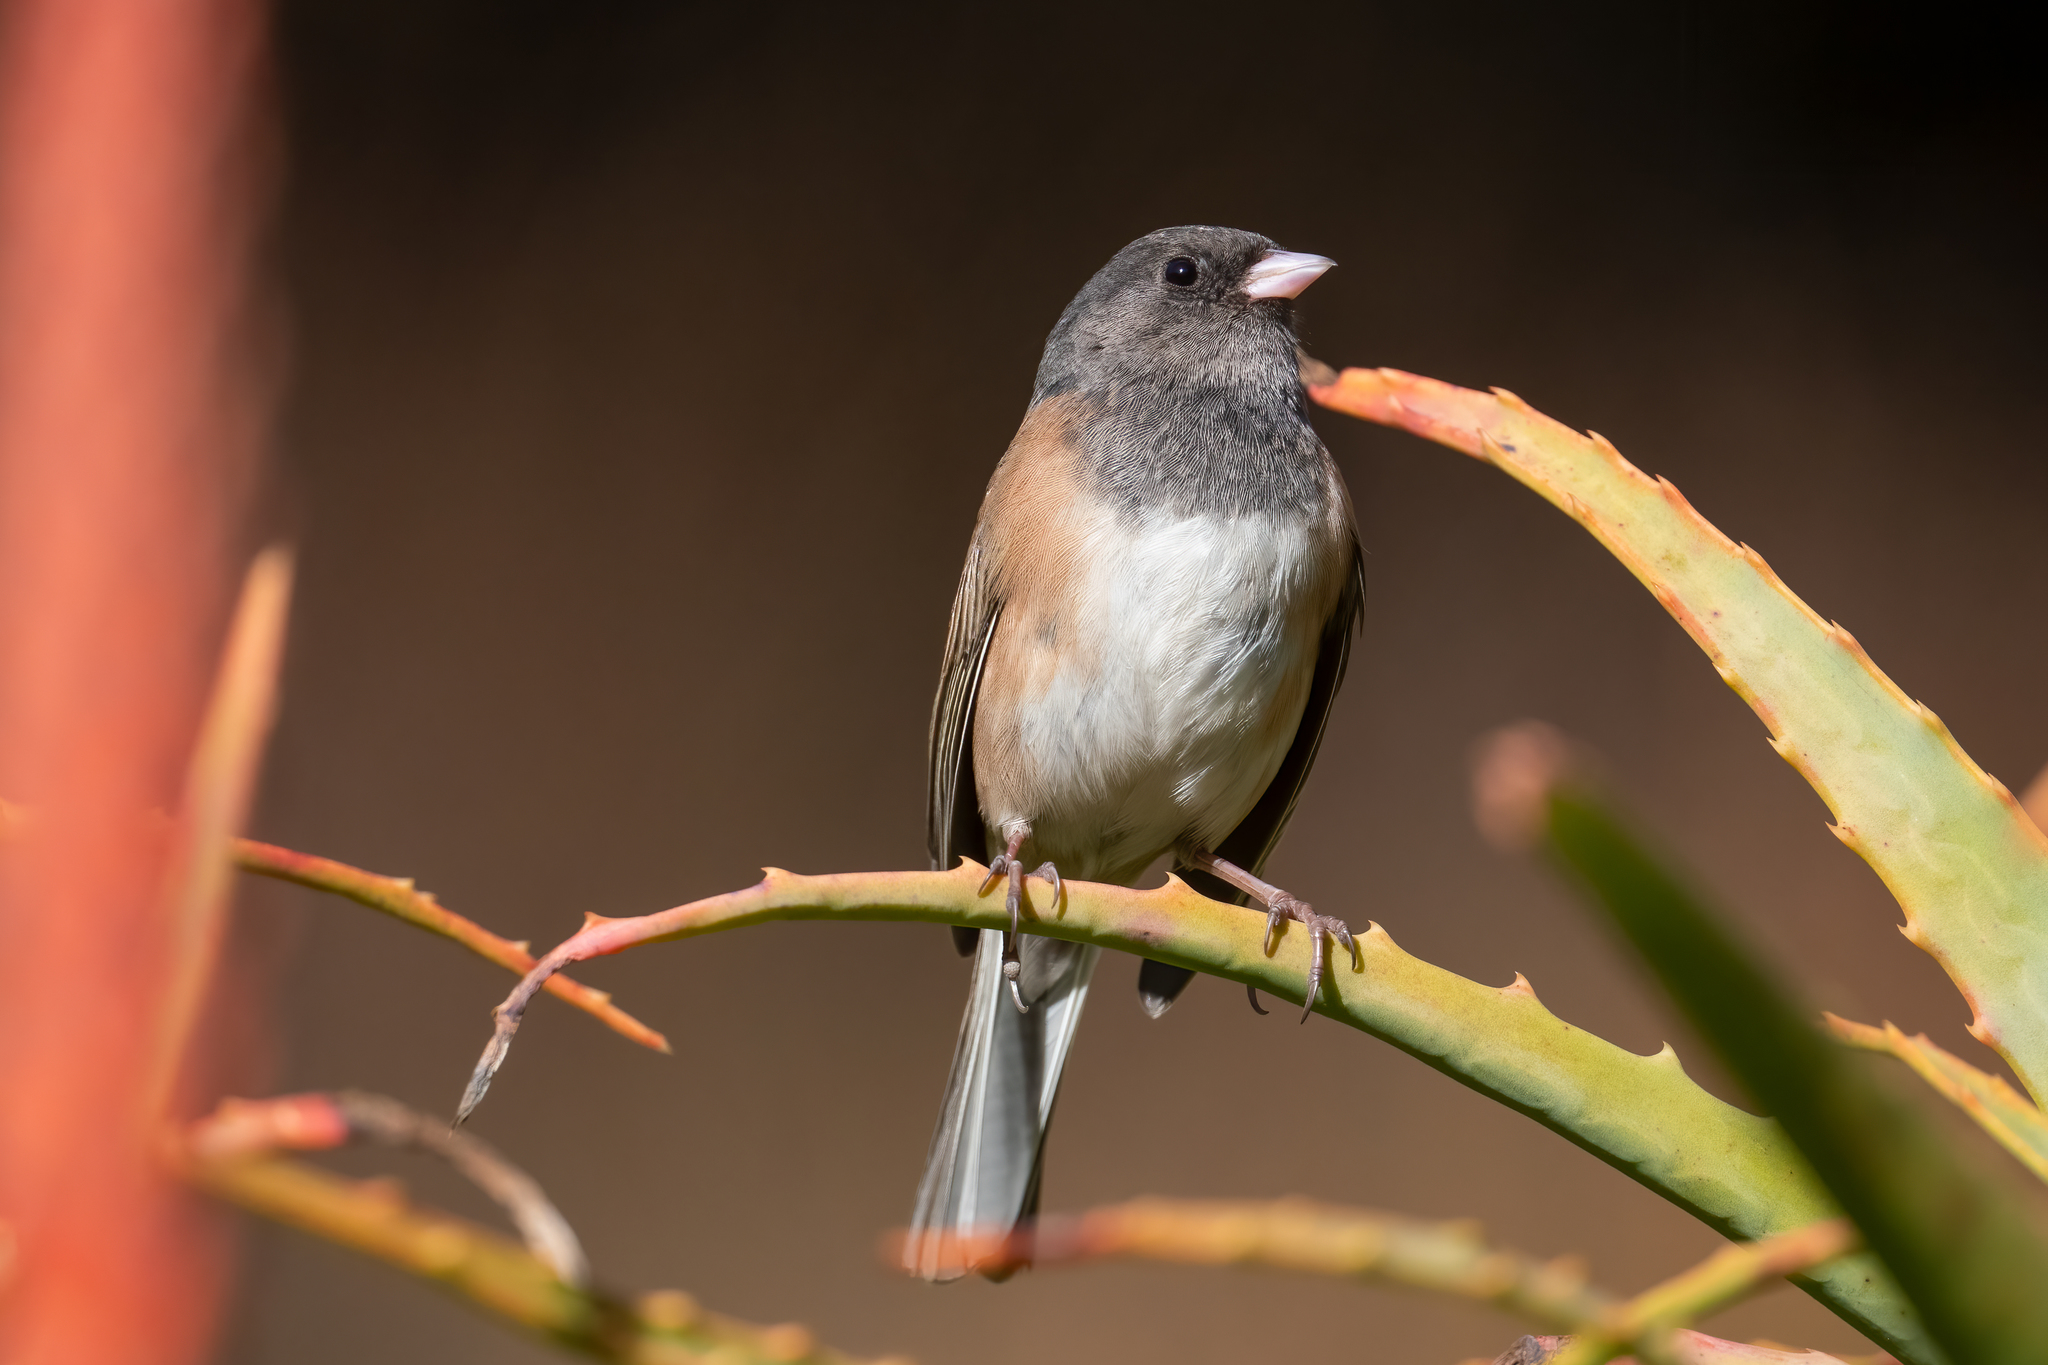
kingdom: Animalia
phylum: Chordata
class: Aves
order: Passeriformes
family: Passerellidae
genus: Junco
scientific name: Junco hyemalis
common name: Dark-eyed junco
